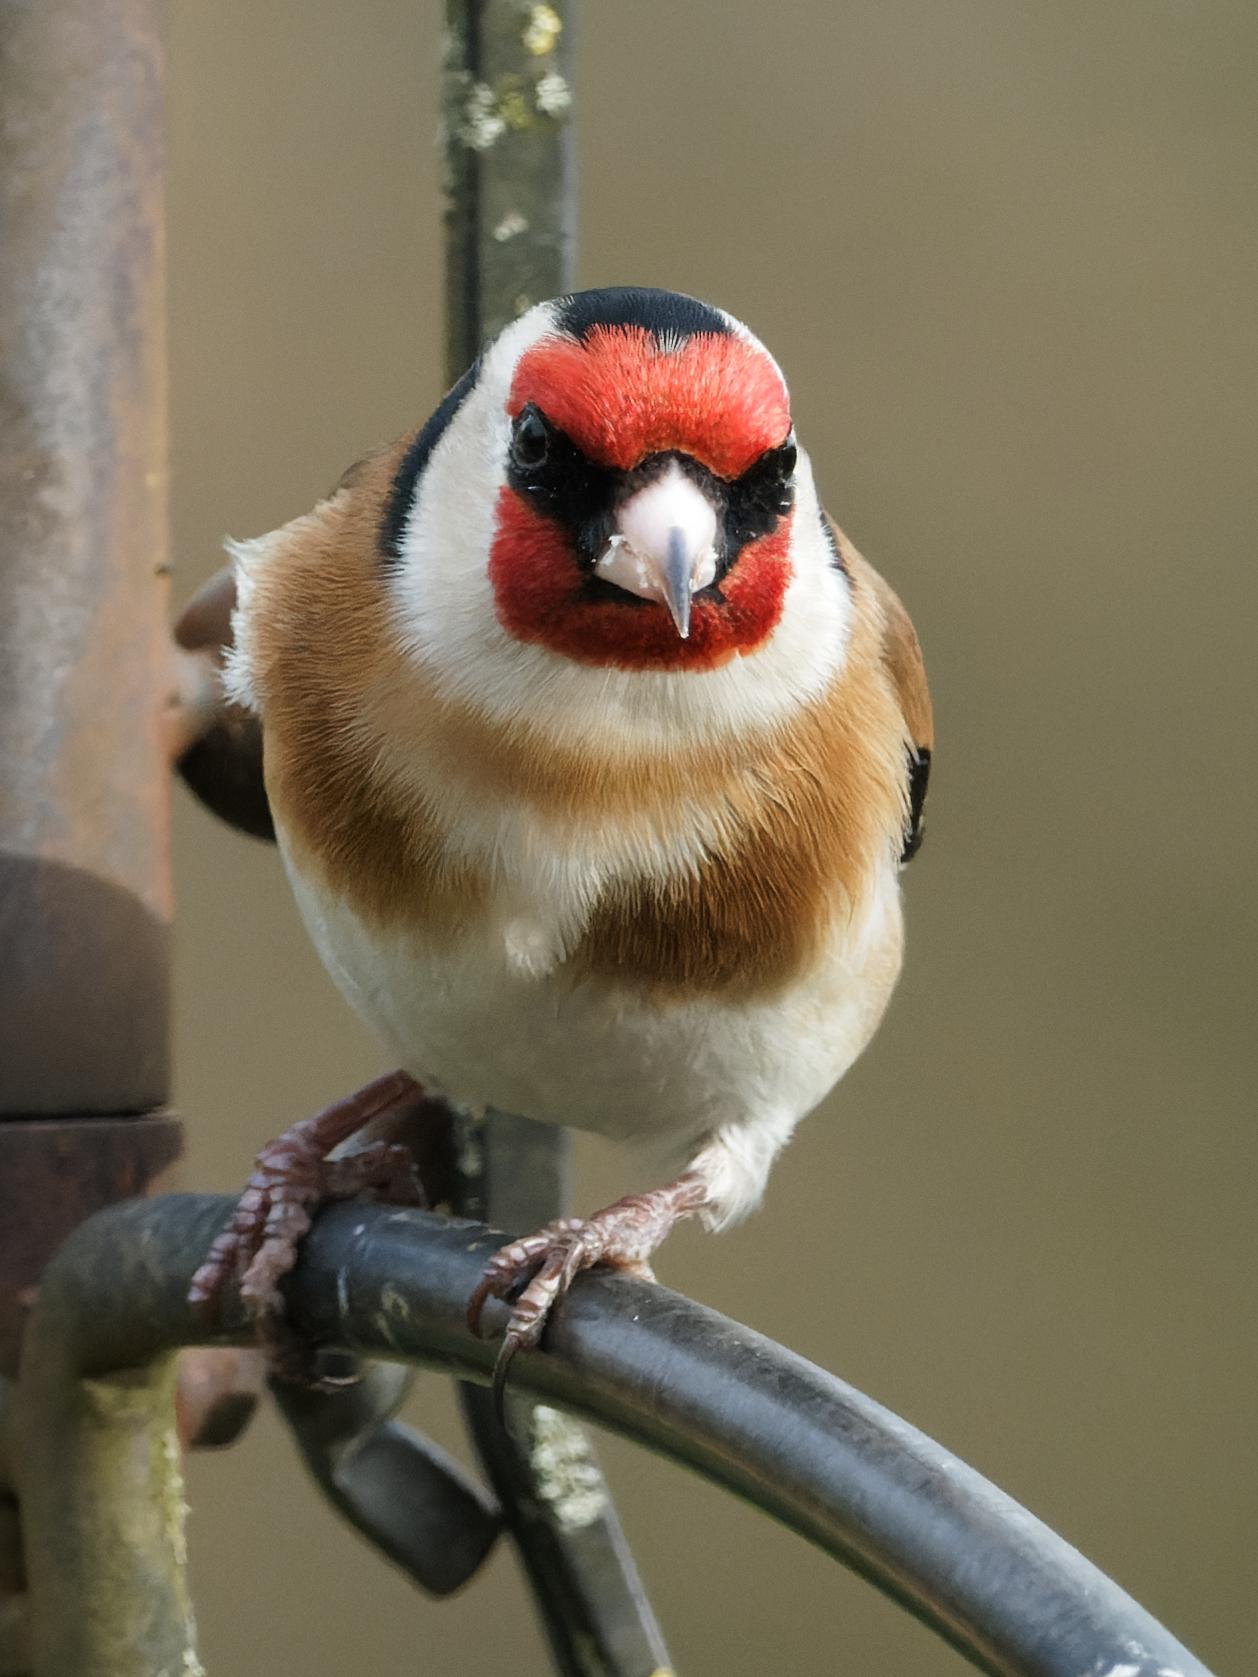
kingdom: Animalia
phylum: Chordata
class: Aves
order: Passeriformes
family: Fringillidae
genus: Carduelis
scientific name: Carduelis carduelis
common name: European goldfinch
